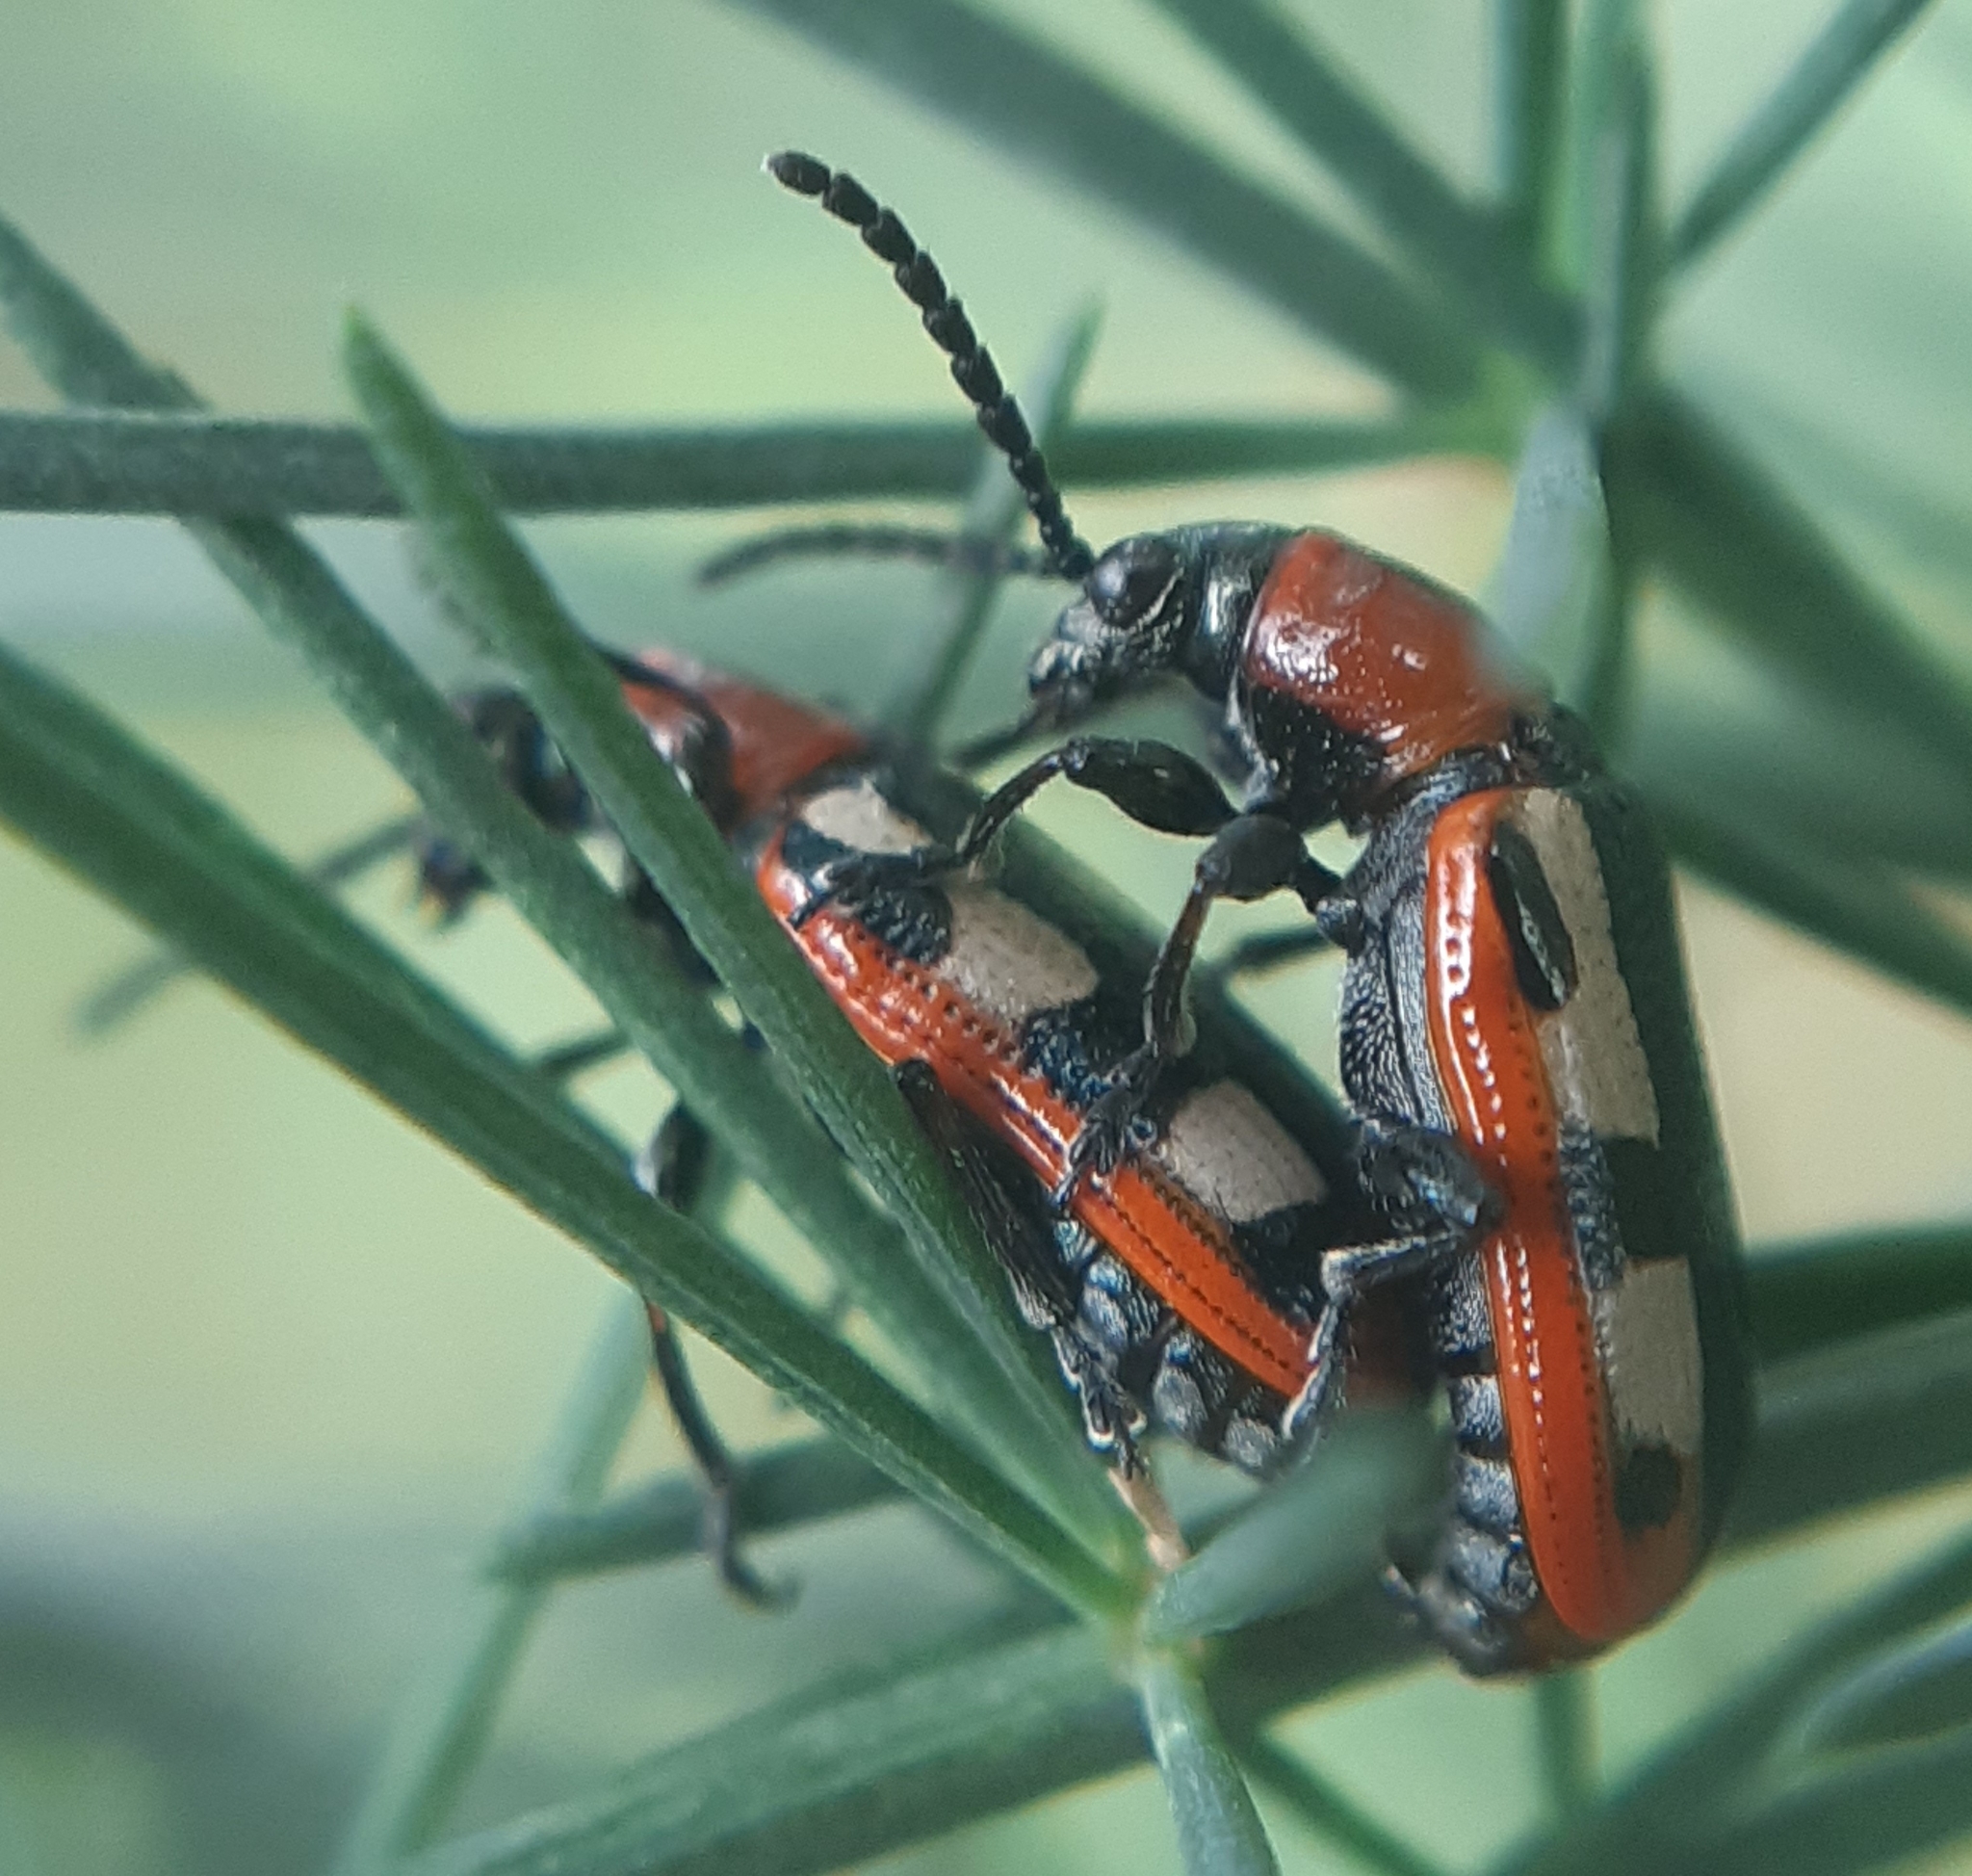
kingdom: Animalia
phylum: Arthropoda
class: Insecta
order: Coleoptera
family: Chrysomelidae
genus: Crioceris
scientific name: Crioceris asparagi
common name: Asparagus beetle
